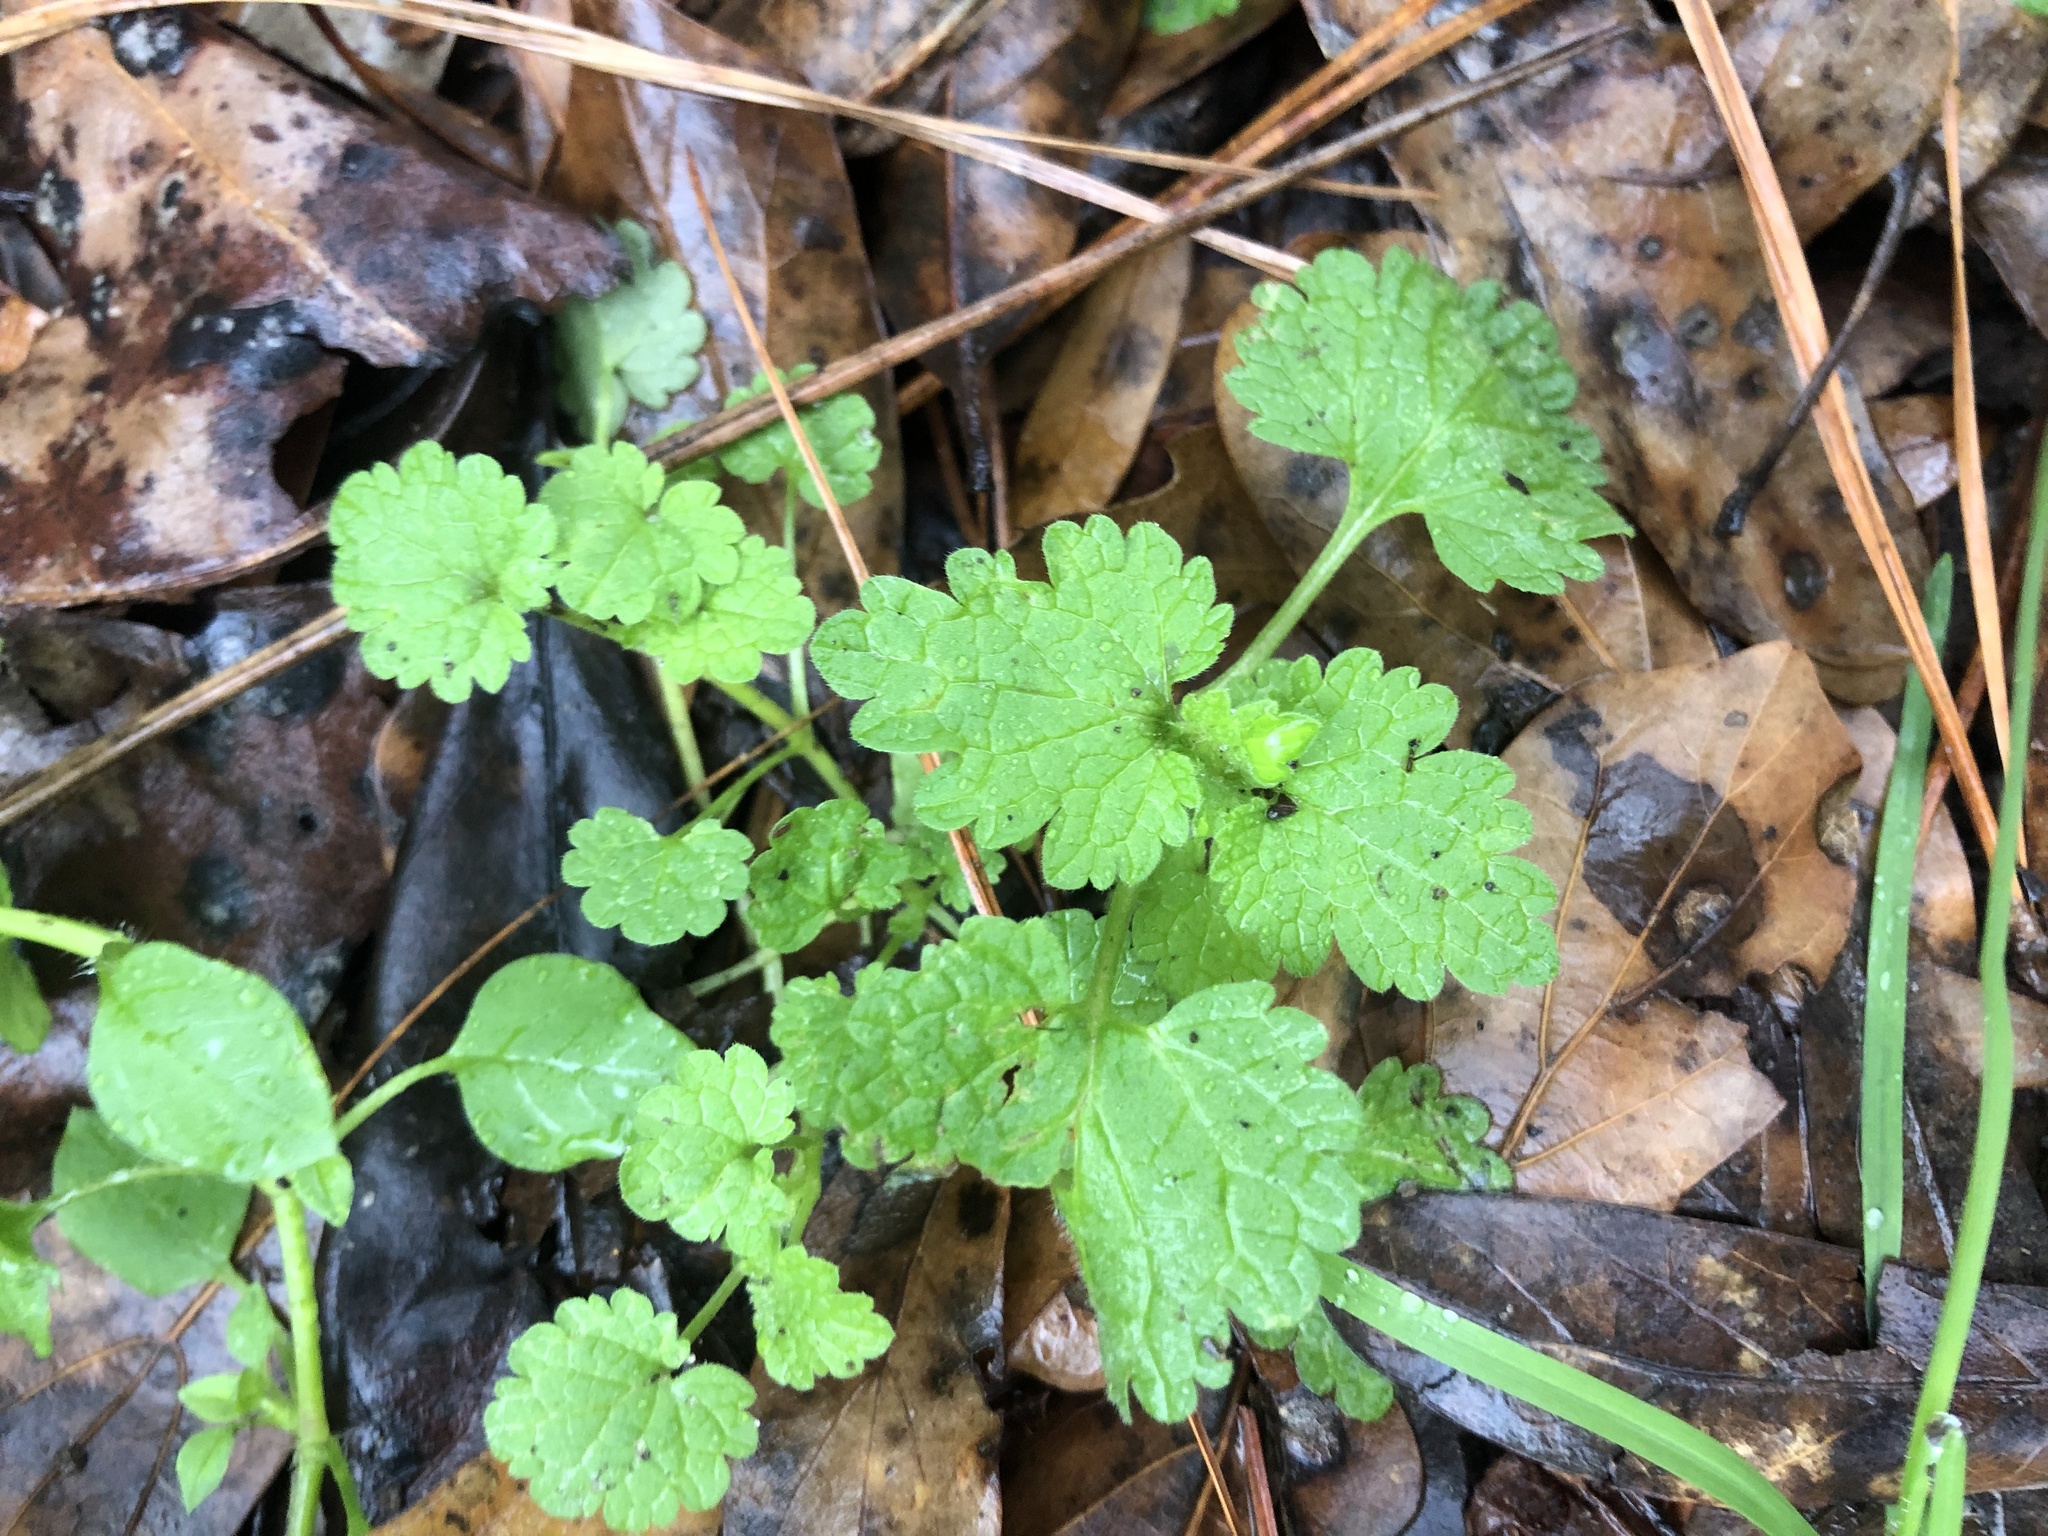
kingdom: Plantae
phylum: Tracheophyta
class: Magnoliopsida
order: Lamiales
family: Lamiaceae
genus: Lamium
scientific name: Lamium hybridum
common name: Cut-leaved dead-nettle
